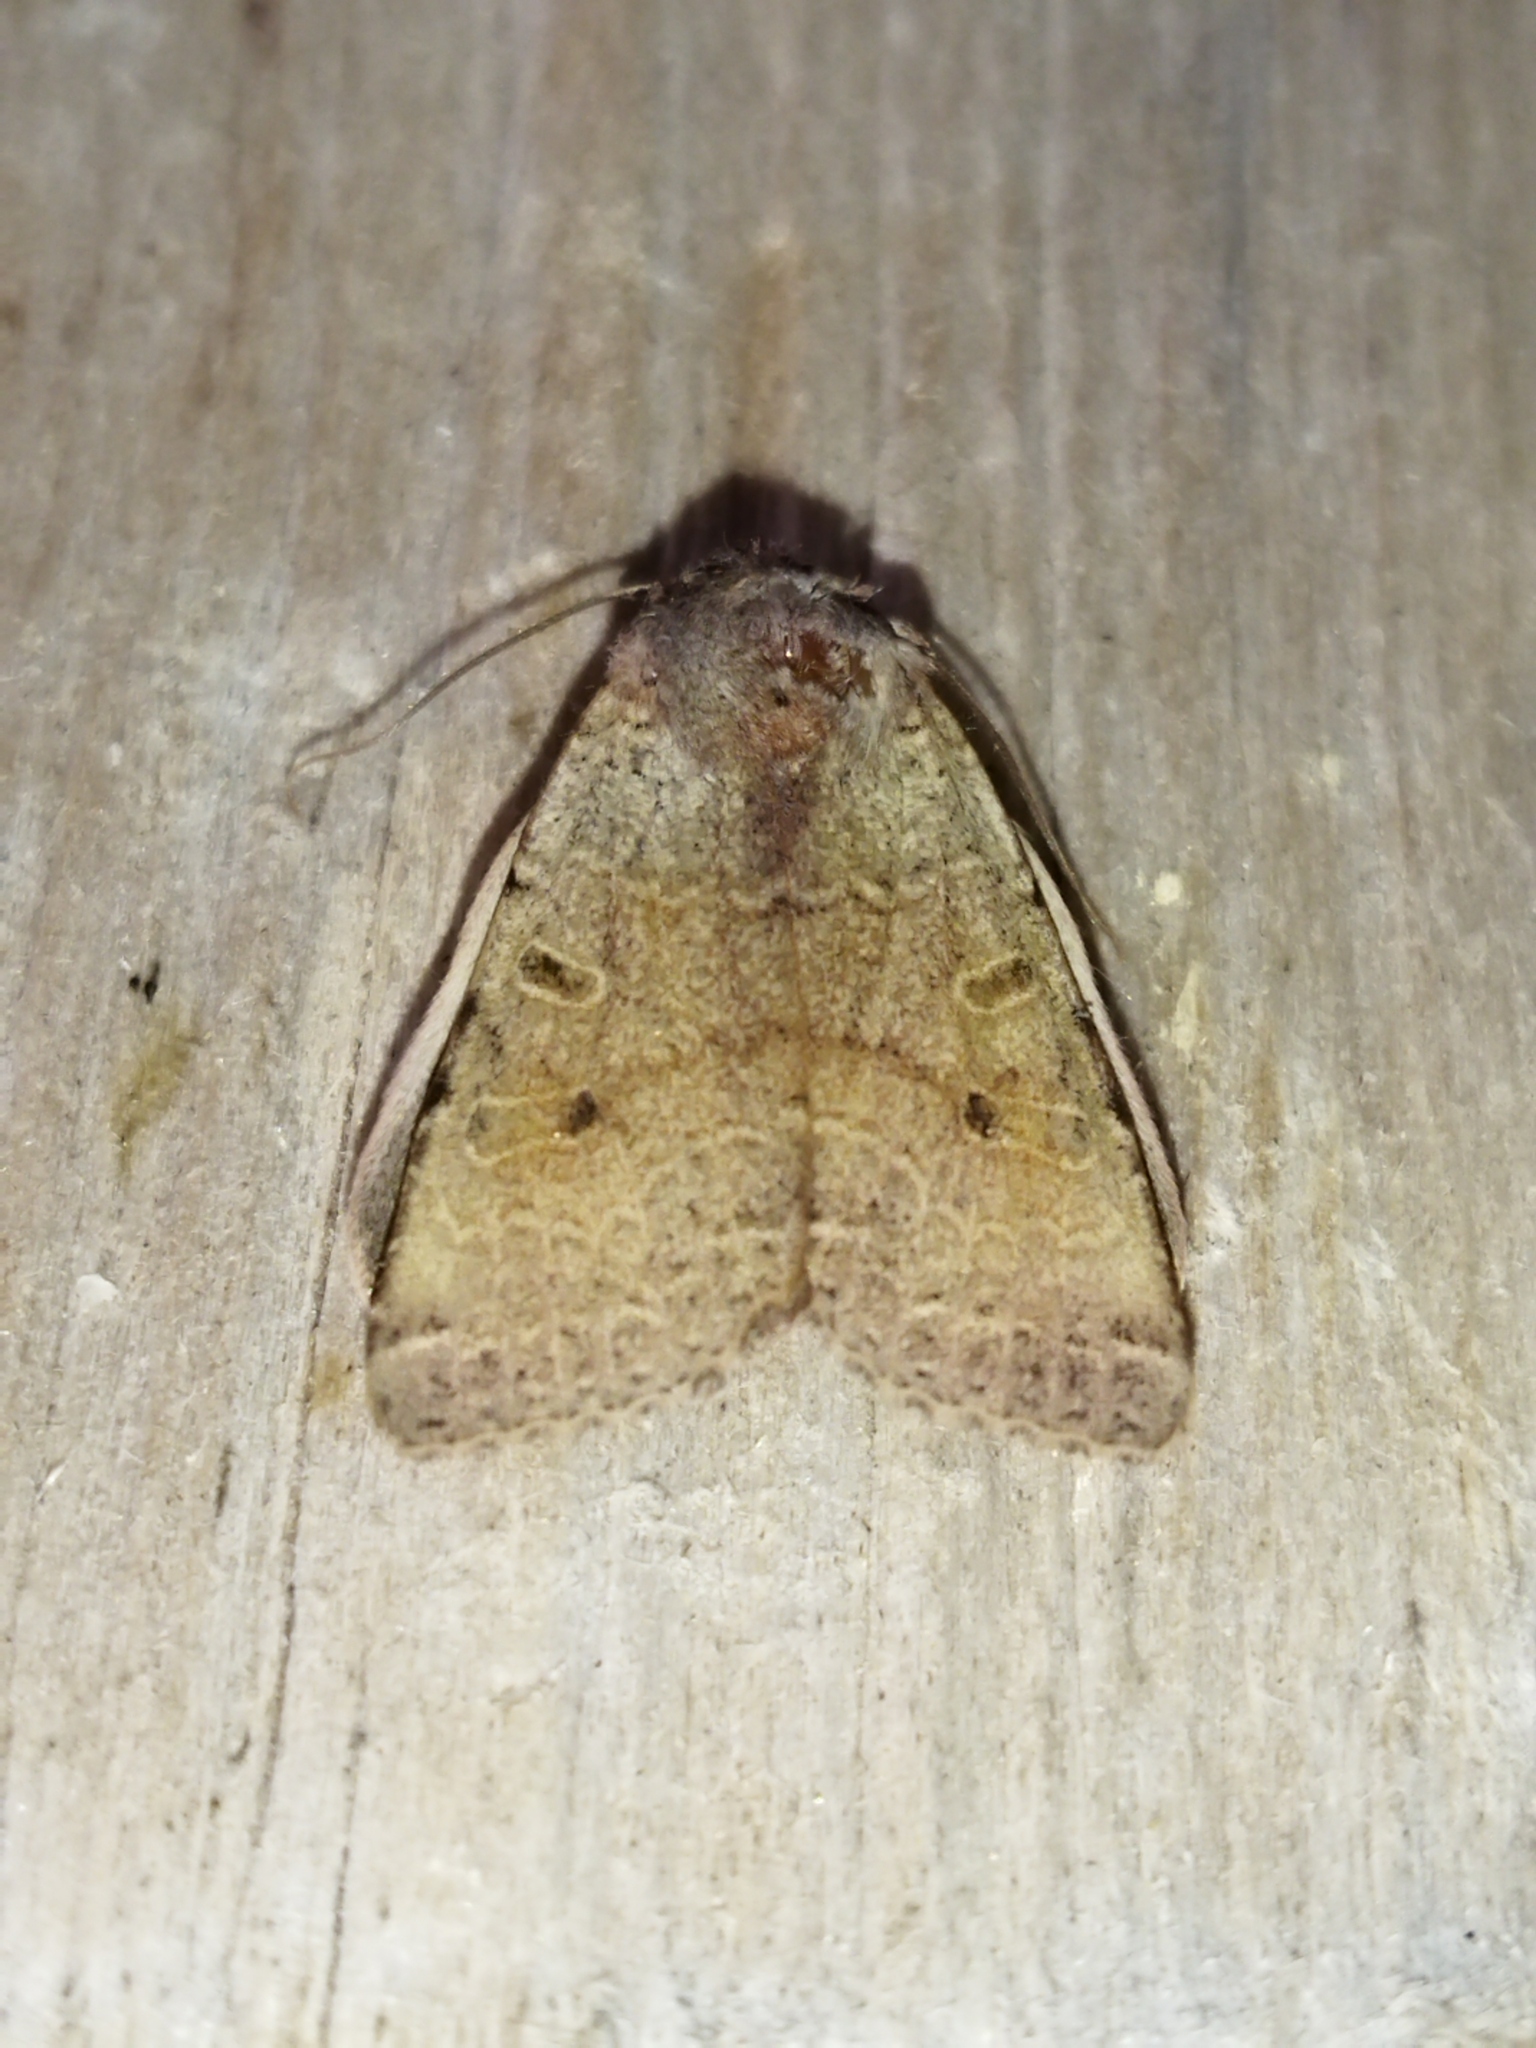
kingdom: Animalia
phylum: Arthropoda
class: Insecta
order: Lepidoptera
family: Noctuidae
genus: Agrochola
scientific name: Agrochola lychnidis
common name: Beaded chestnut
